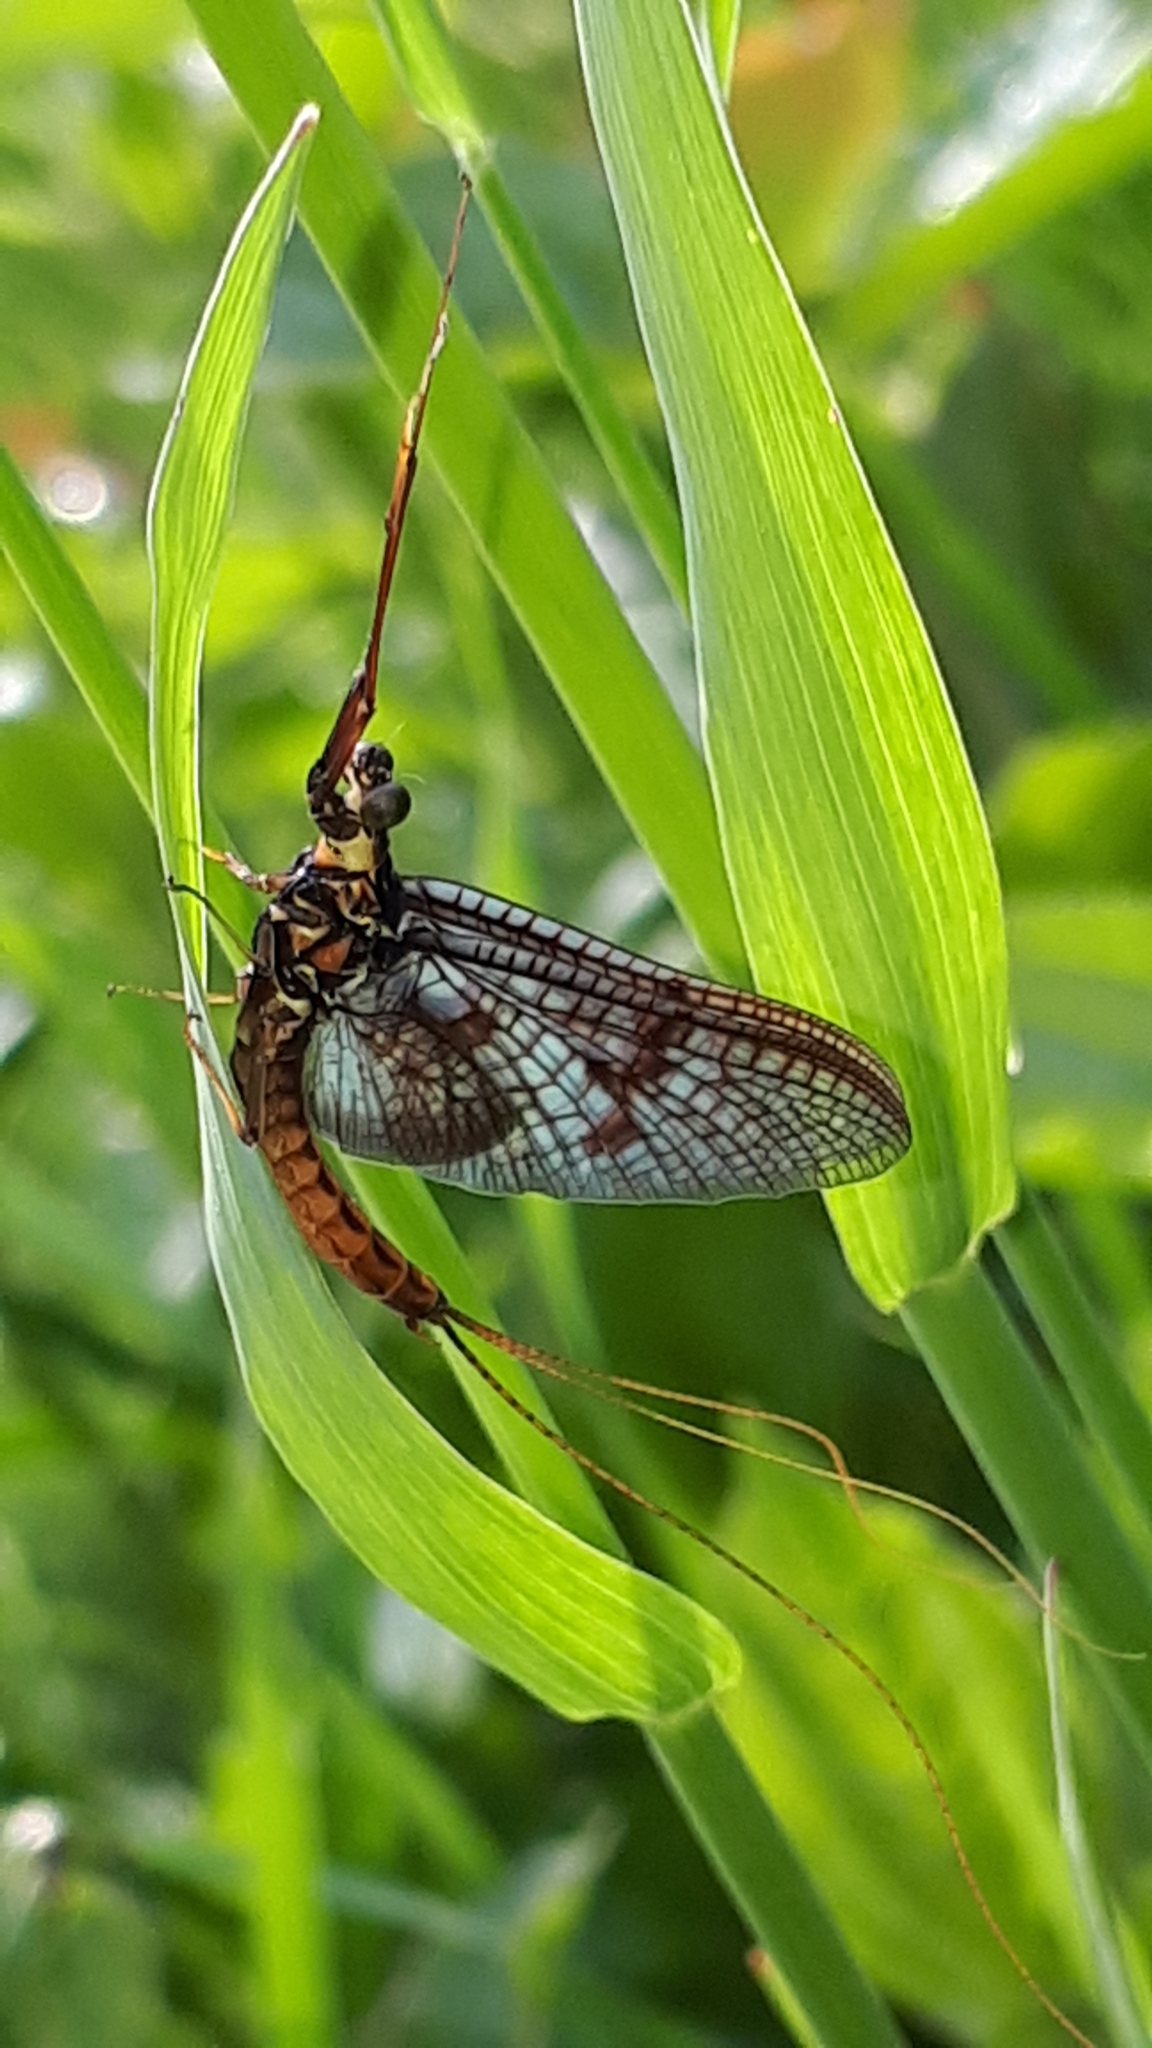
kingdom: Animalia
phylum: Arthropoda
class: Insecta
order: Ephemeroptera
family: Ephemeridae
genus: Ephemera
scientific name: Ephemera vulgata
